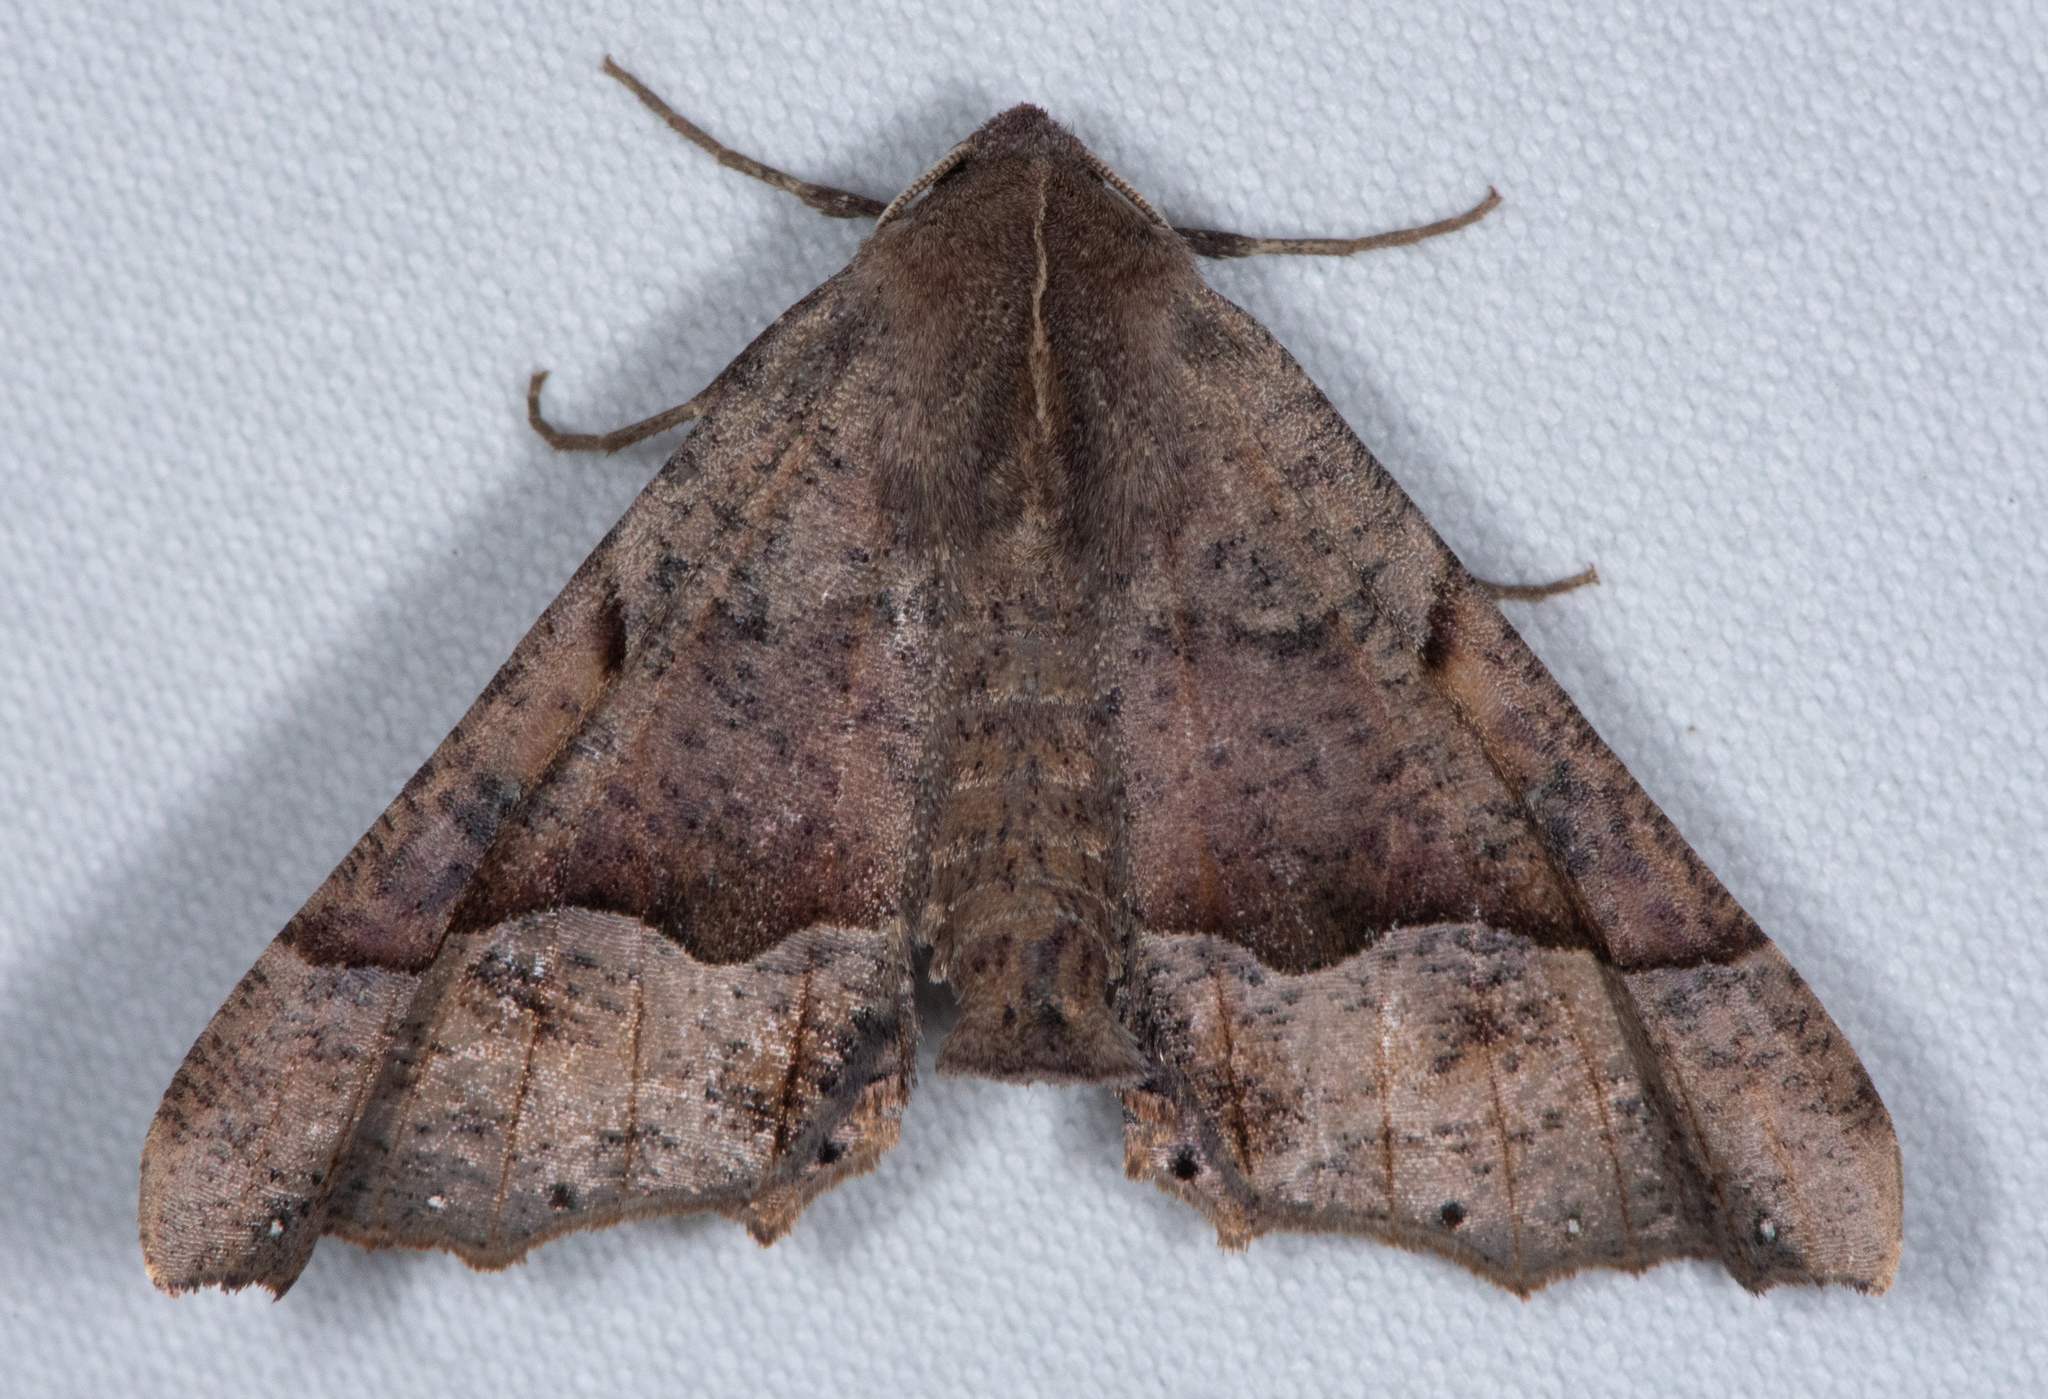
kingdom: Animalia
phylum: Arthropoda
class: Insecta
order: Lepidoptera
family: Geometridae
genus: Pero
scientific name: Pero mizon
